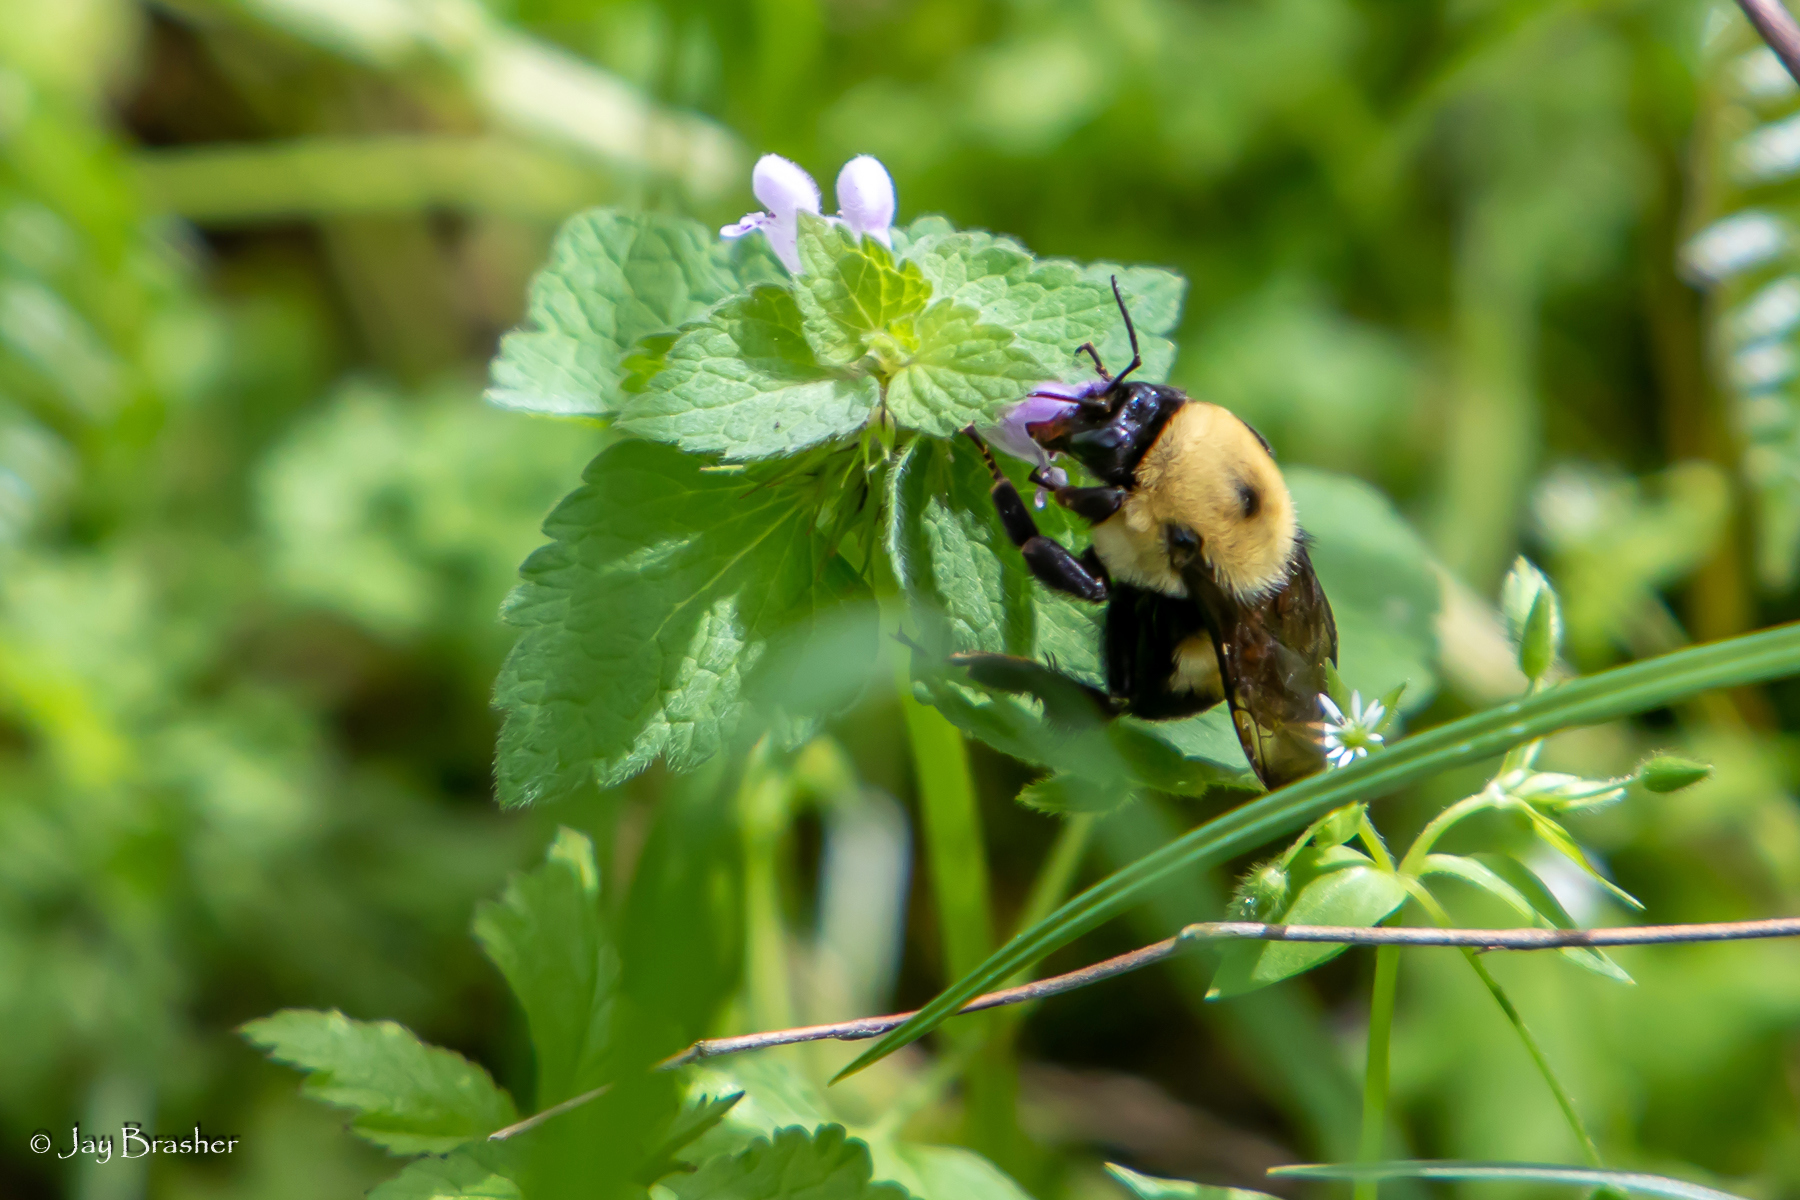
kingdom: Animalia
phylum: Arthropoda
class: Insecta
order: Hymenoptera
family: Apidae
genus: Bombus
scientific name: Bombus griseocollis
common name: Brown-belted bumble bee
